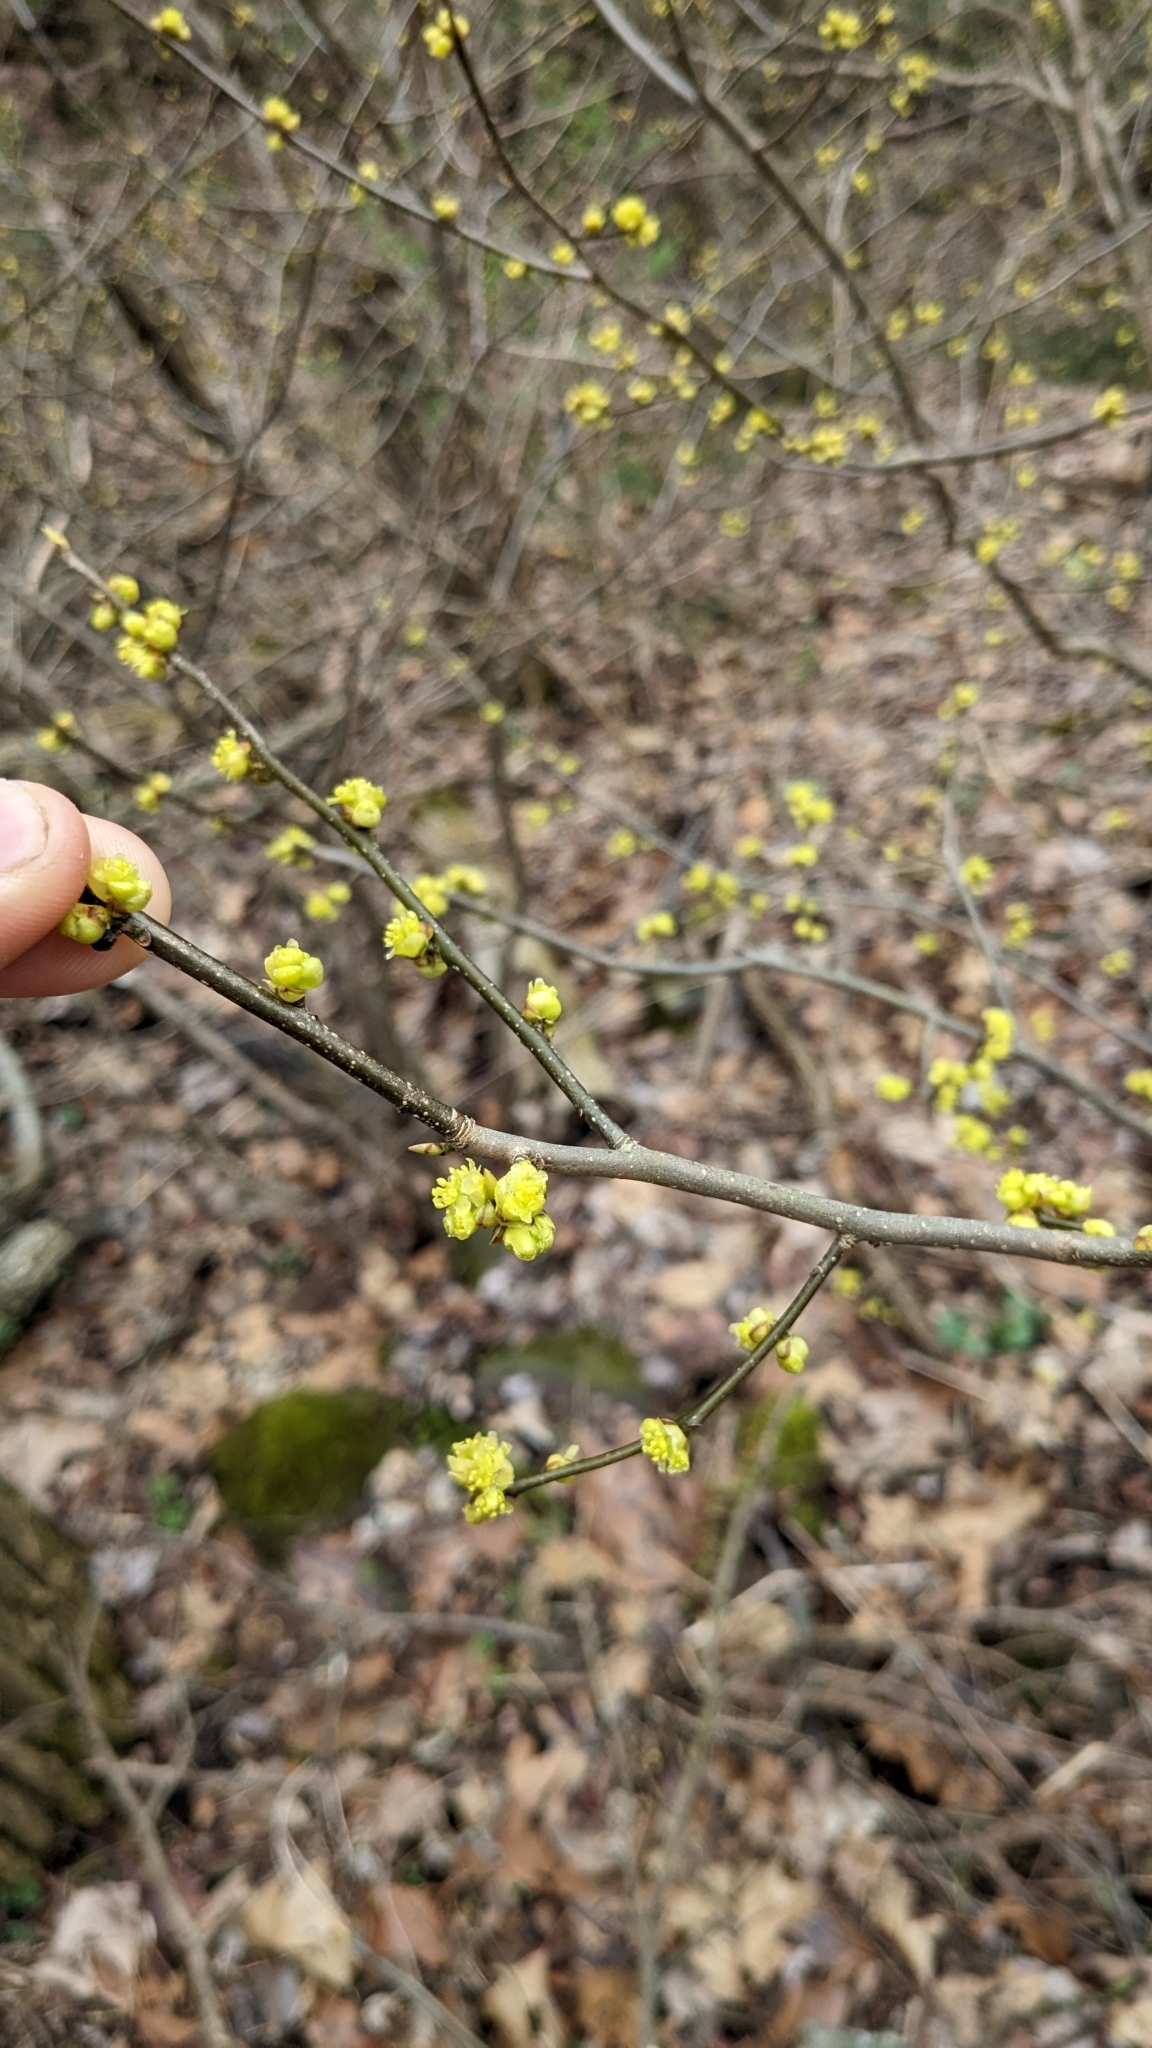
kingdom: Plantae
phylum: Tracheophyta
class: Magnoliopsida
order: Laurales
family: Lauraceae
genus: Lindera
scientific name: Lindera benzoin
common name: Spicebush
